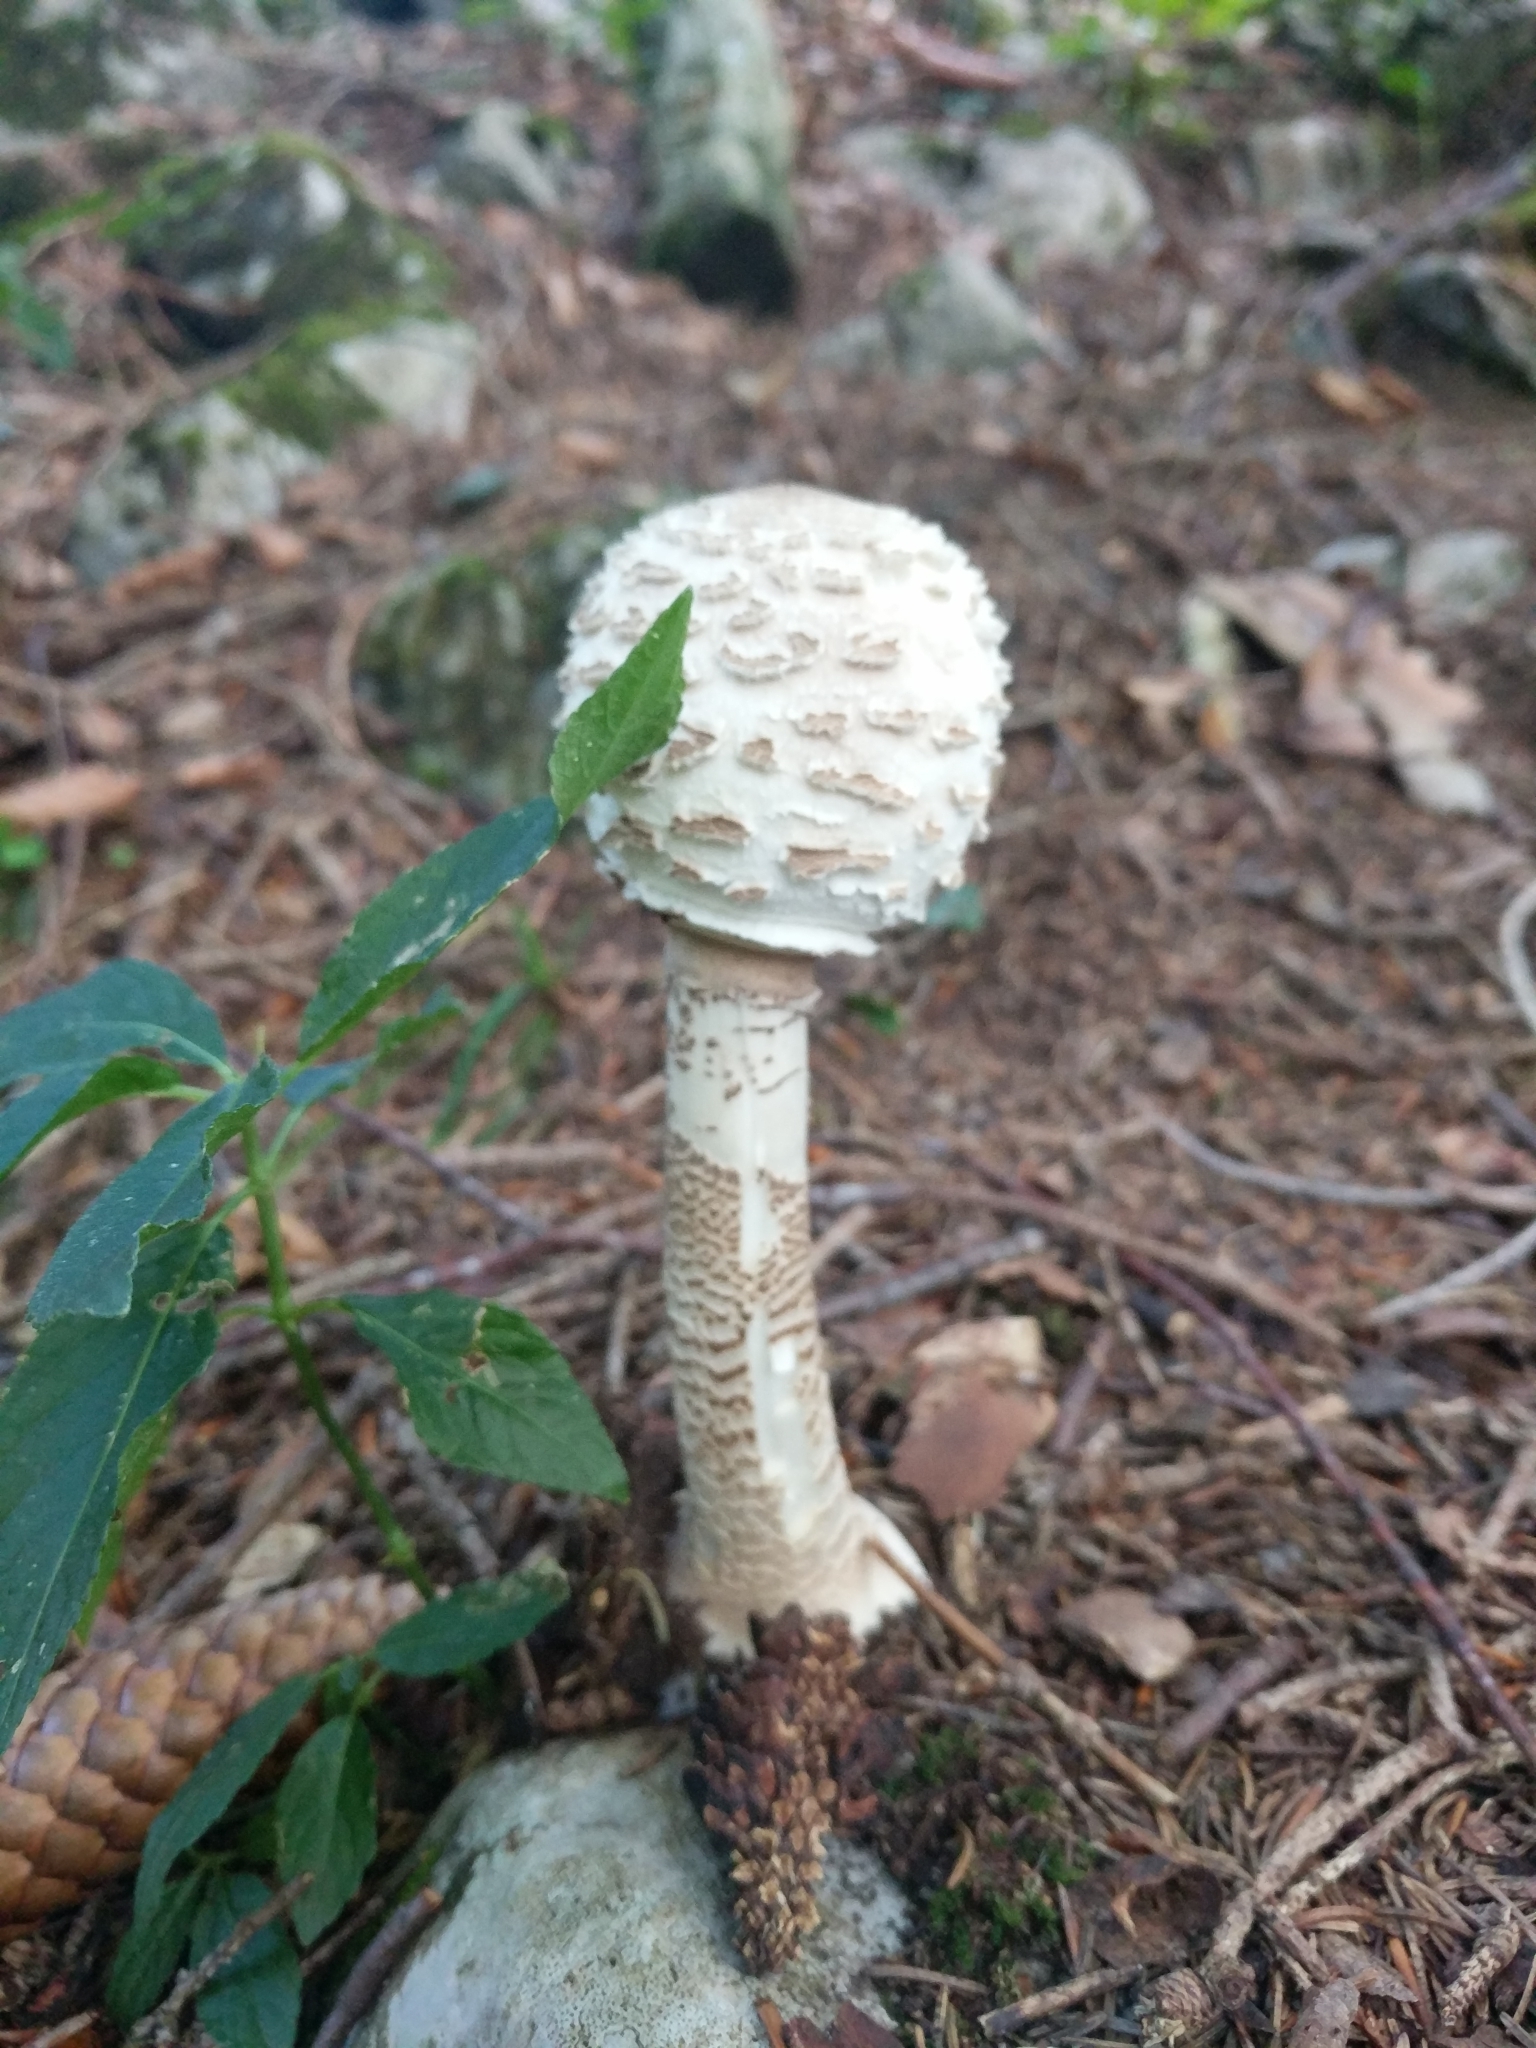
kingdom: Fungi
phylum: Basidiomycota
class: Agaricomycetes
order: Agaricales
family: Agaricaceae
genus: Macrolepiota
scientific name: Macrolepiota procera
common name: Parasol
